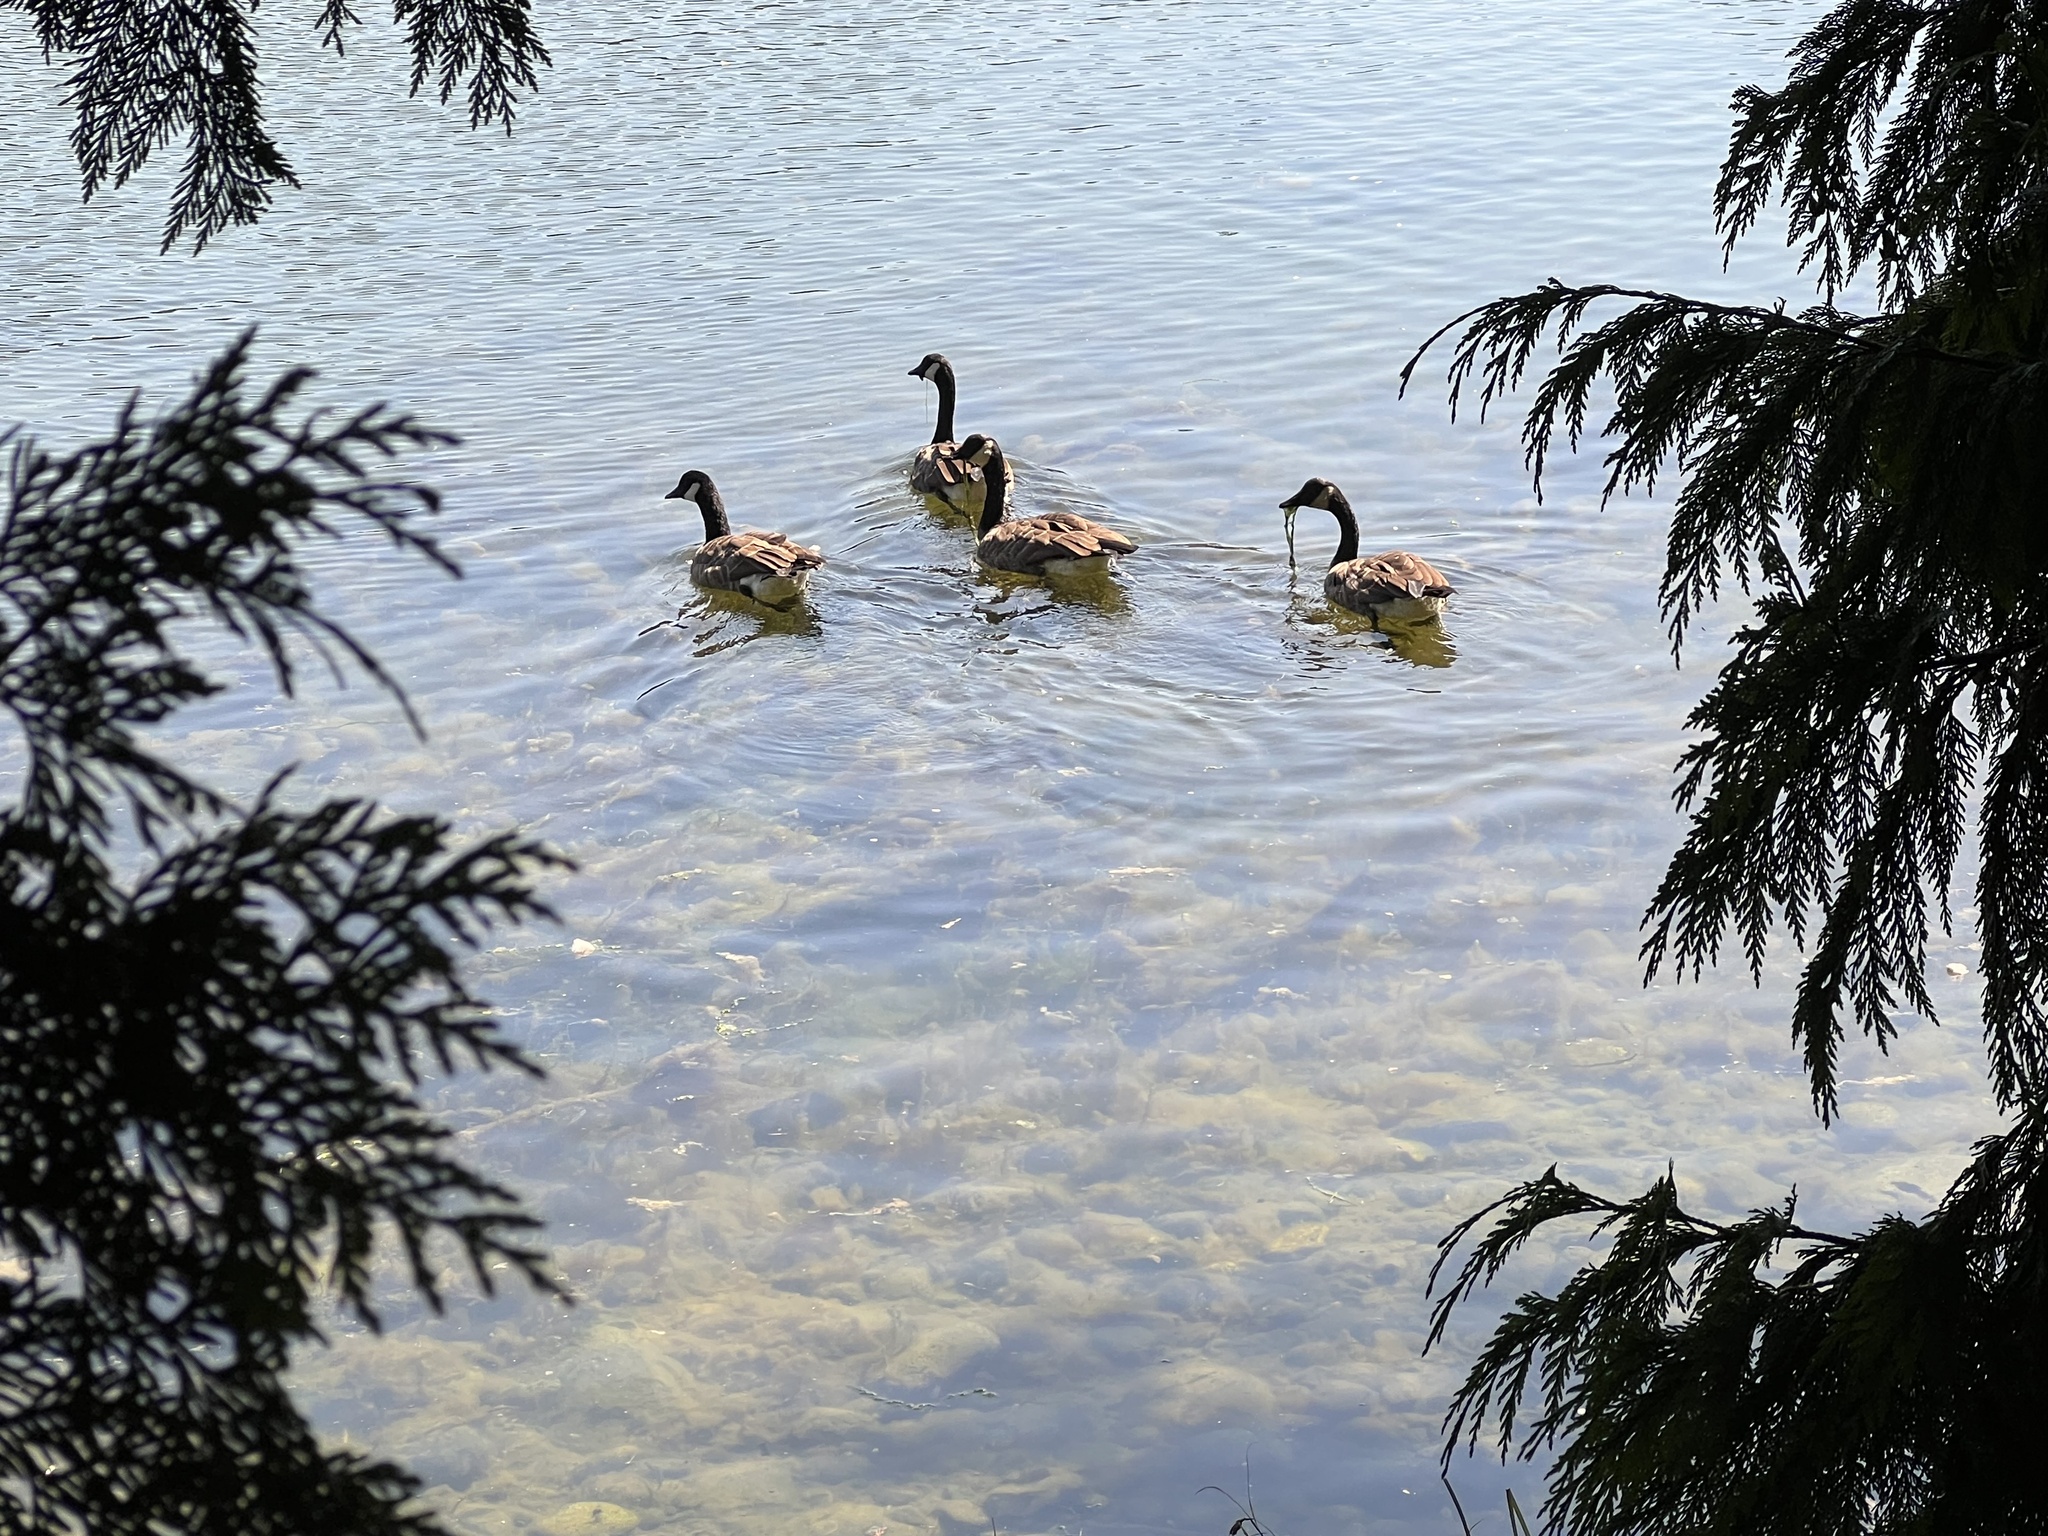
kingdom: Animalia
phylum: Chordata
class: Aves
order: Anseriformes
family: Anatidae
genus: Branta
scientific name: Branta canadensis
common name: Canada goose
